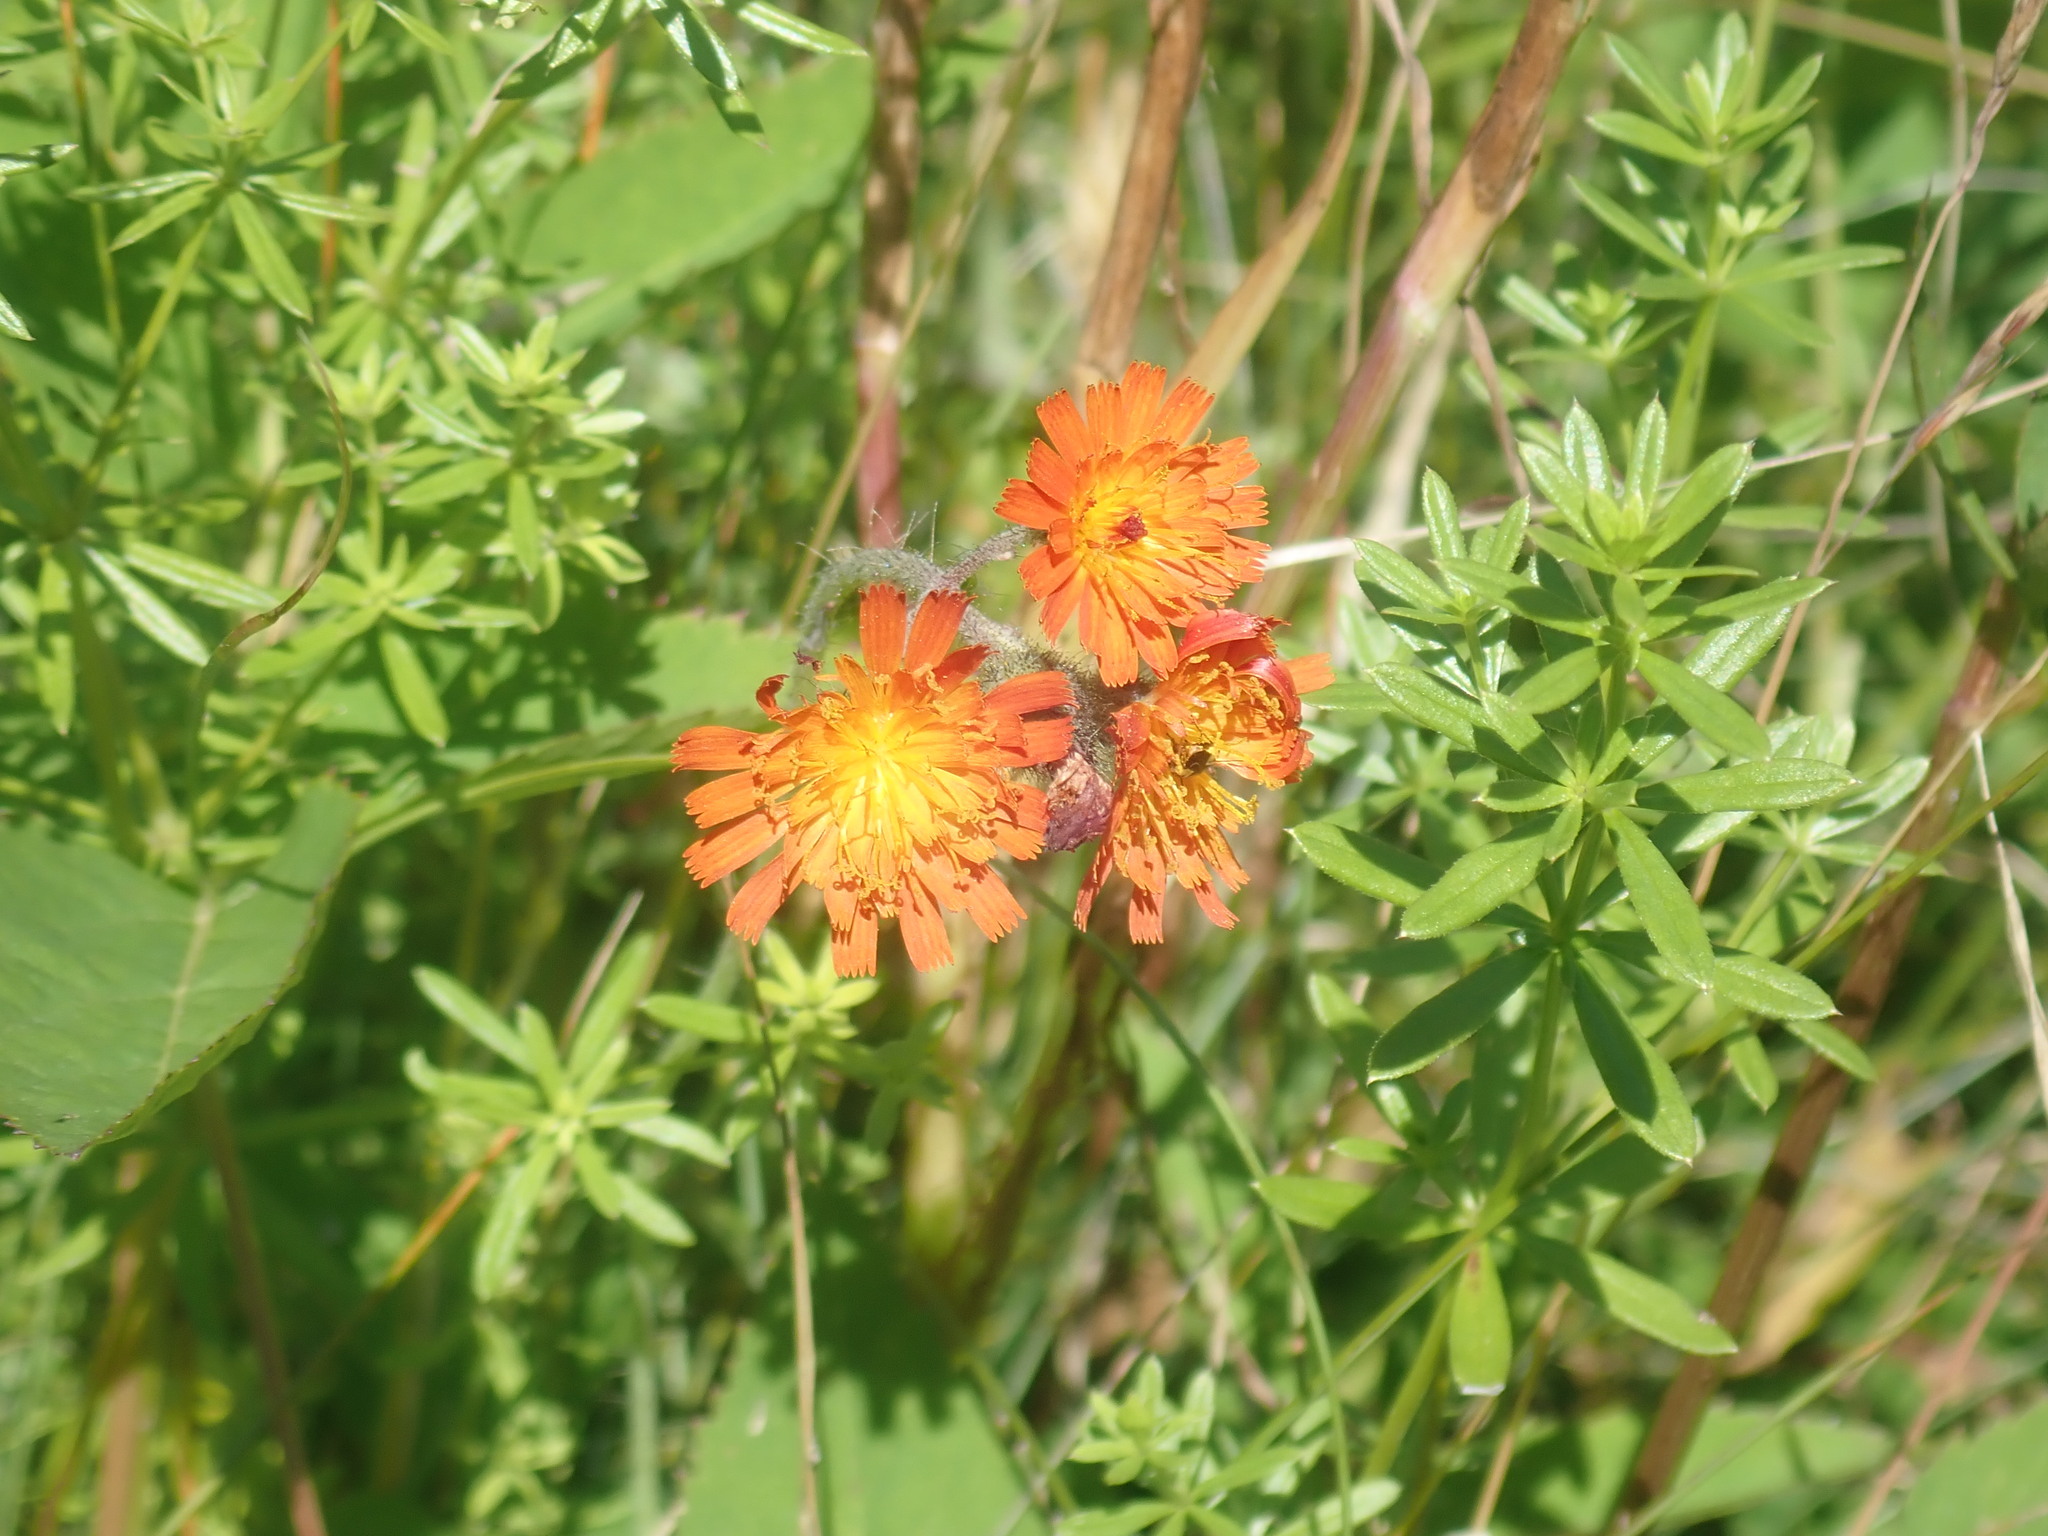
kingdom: Plantae
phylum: Tracheophyta
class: Magnoliopsida
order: Asterales
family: Asteraceae
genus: Pilosella
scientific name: Pilosella aurantiaca
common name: Fox-and-cubs
